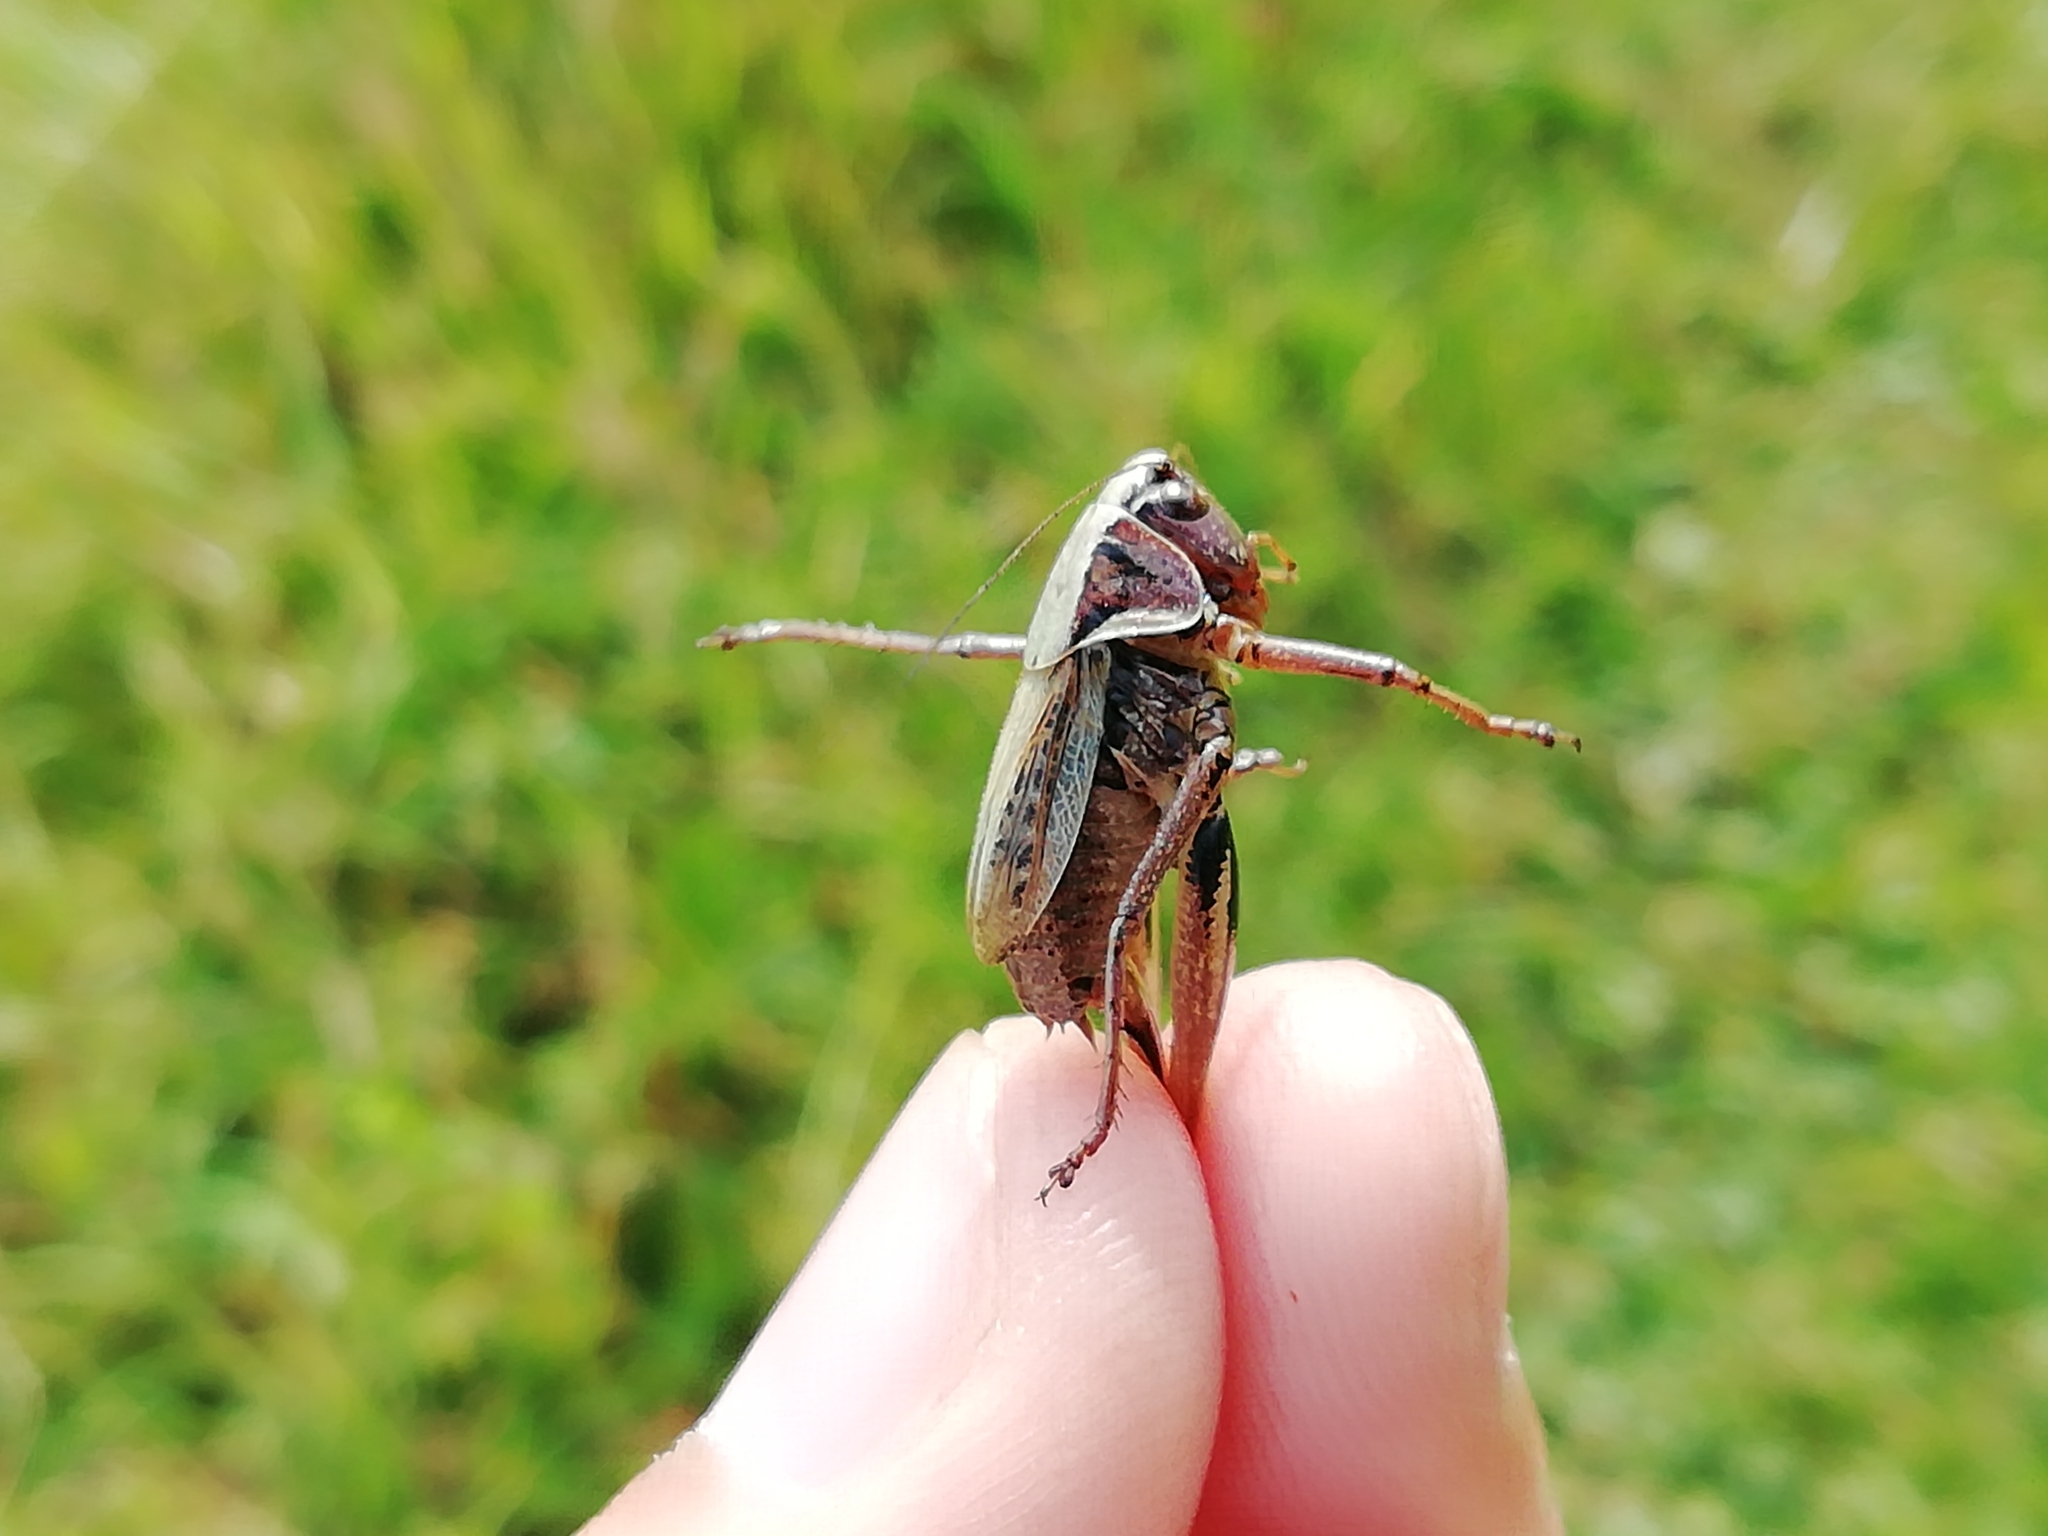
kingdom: Animalia
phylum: Arthropoda
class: Insecta
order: Orthoptera
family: Tettigoniidae
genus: Metrioptera
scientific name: Metrioptera brachyptera
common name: Bog bush-cricket
